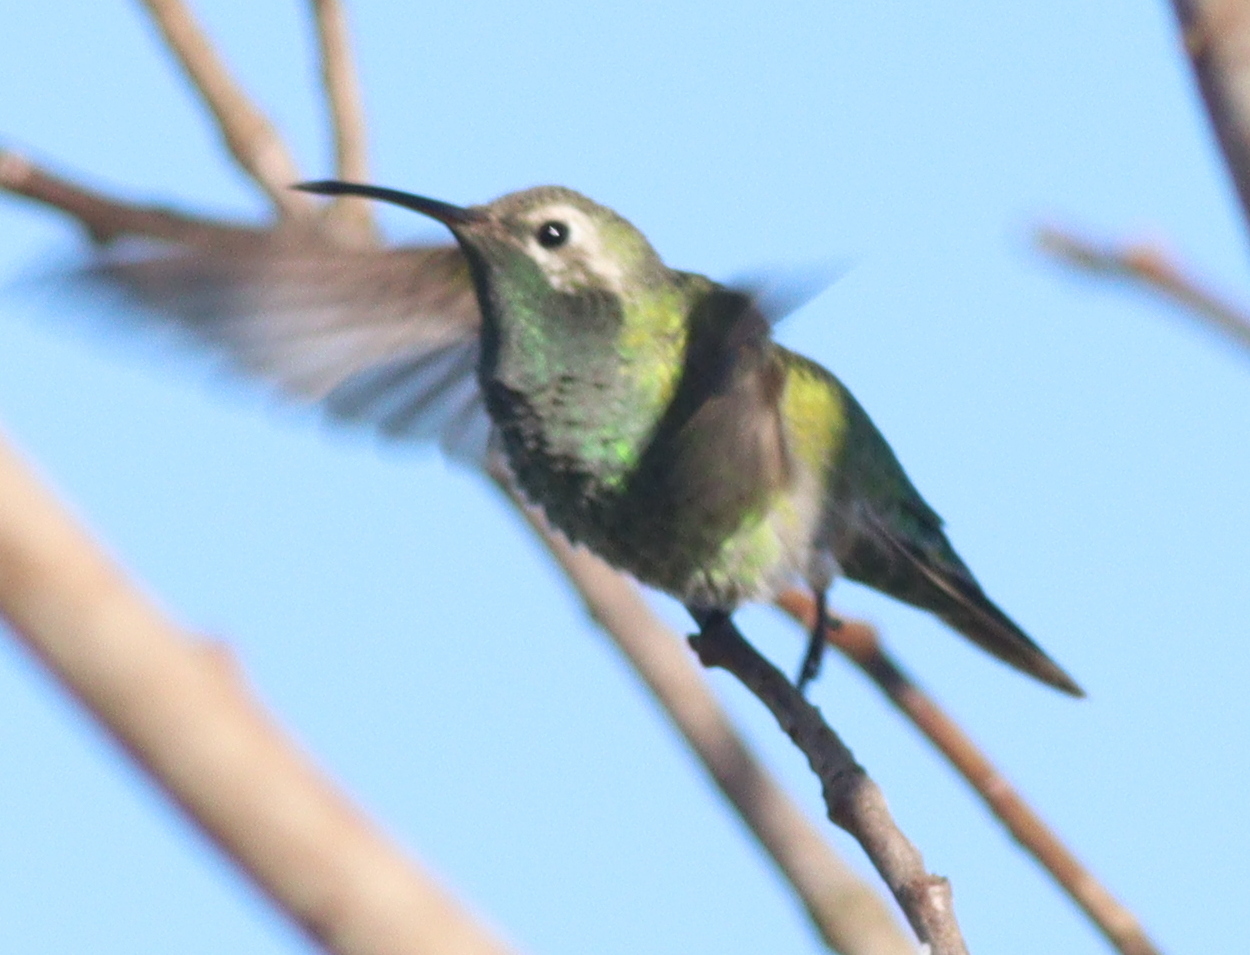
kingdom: Animalia
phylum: Chordata
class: Aves
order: Apodiformes
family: Trochilidae
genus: Polytmus
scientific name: Polytmus guainumbi
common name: White-tailed goldenthroat
